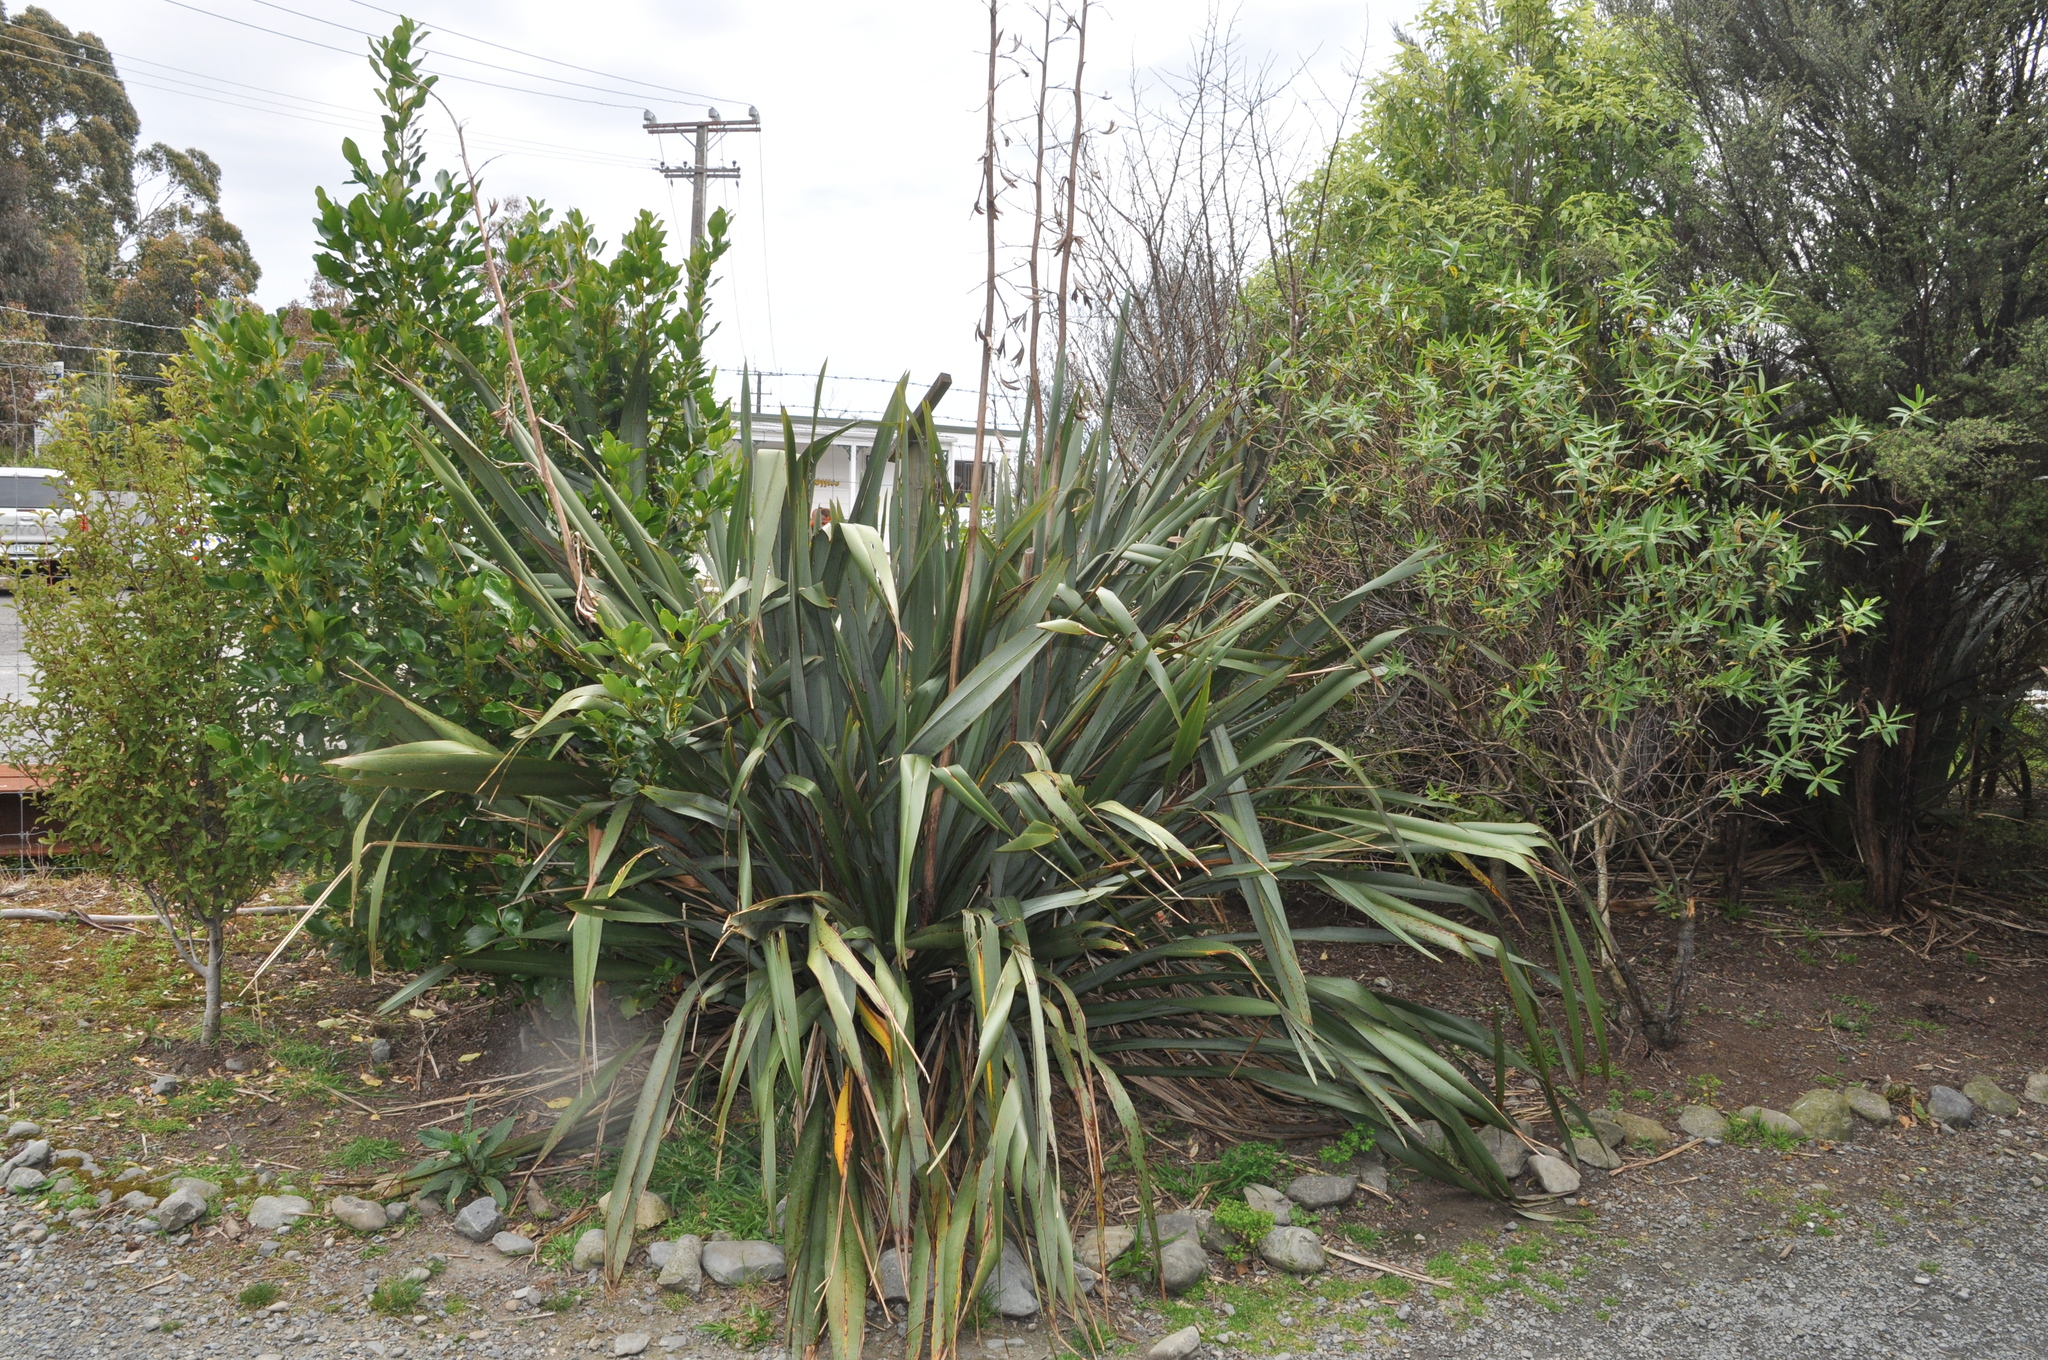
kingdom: Plantae
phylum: Tracheophyta
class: Liliopsida
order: Asparagales
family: Asphodelaceae
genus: Phormium
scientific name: Phormium tenax
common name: New zealand flax
